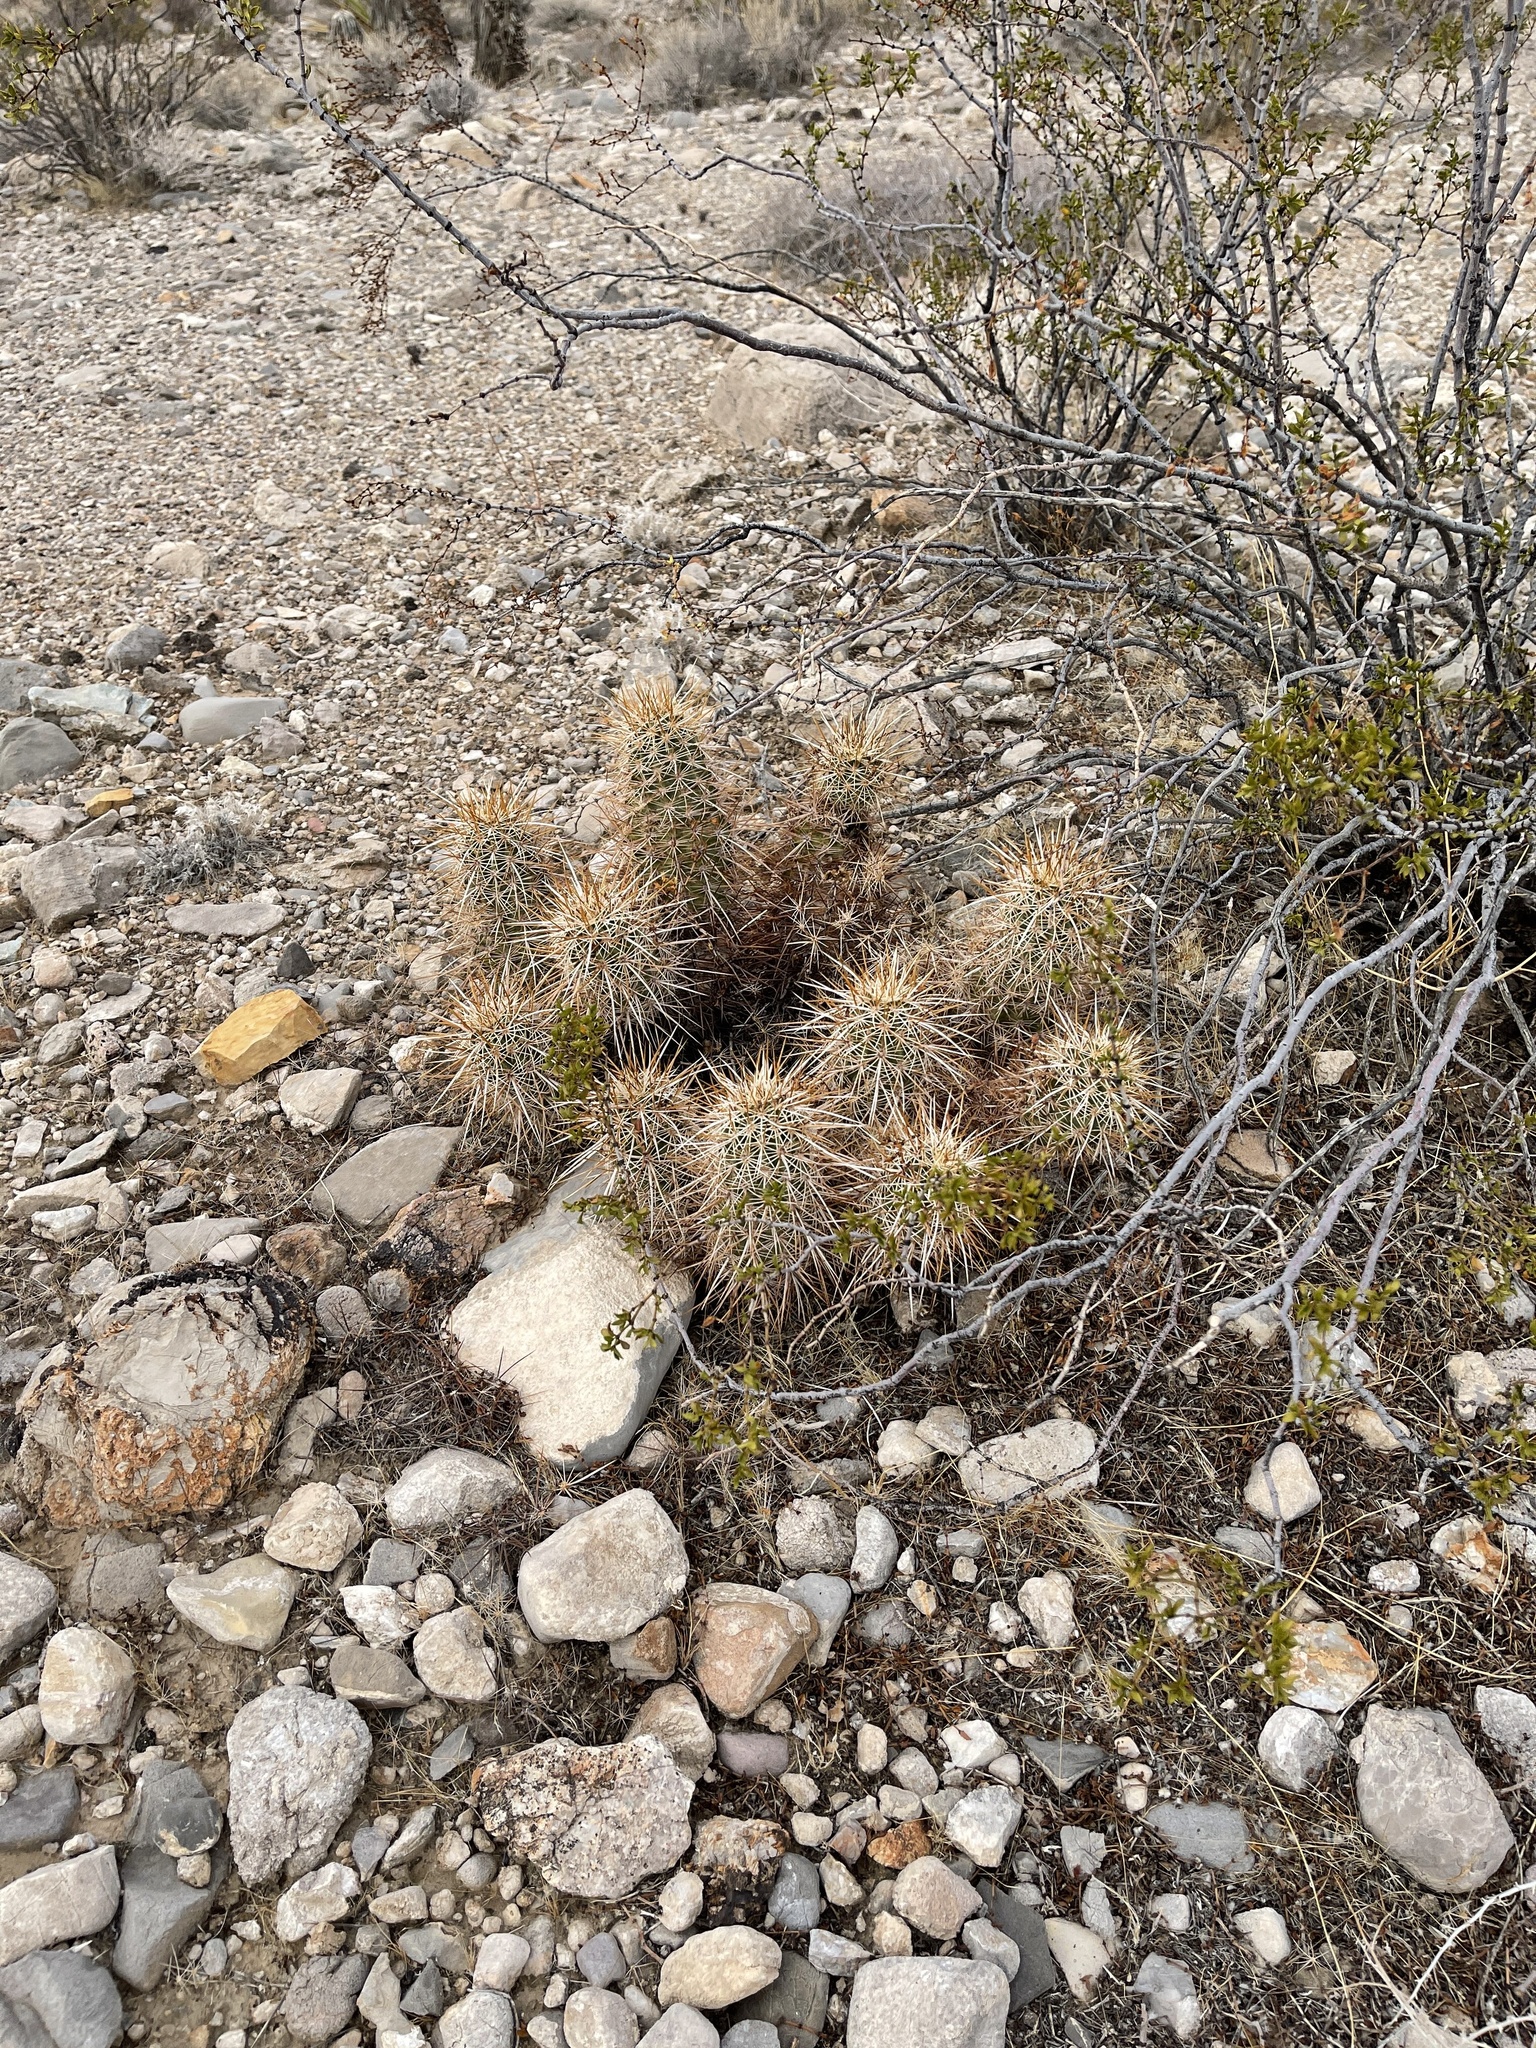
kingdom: Plantae
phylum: Tracheophyta
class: Magnoliopsida
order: Caryophyllales
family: Cactaceae
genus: Echinocereus
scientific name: Echinocereus engelmannii
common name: Engelmann's hedgehog cactus
